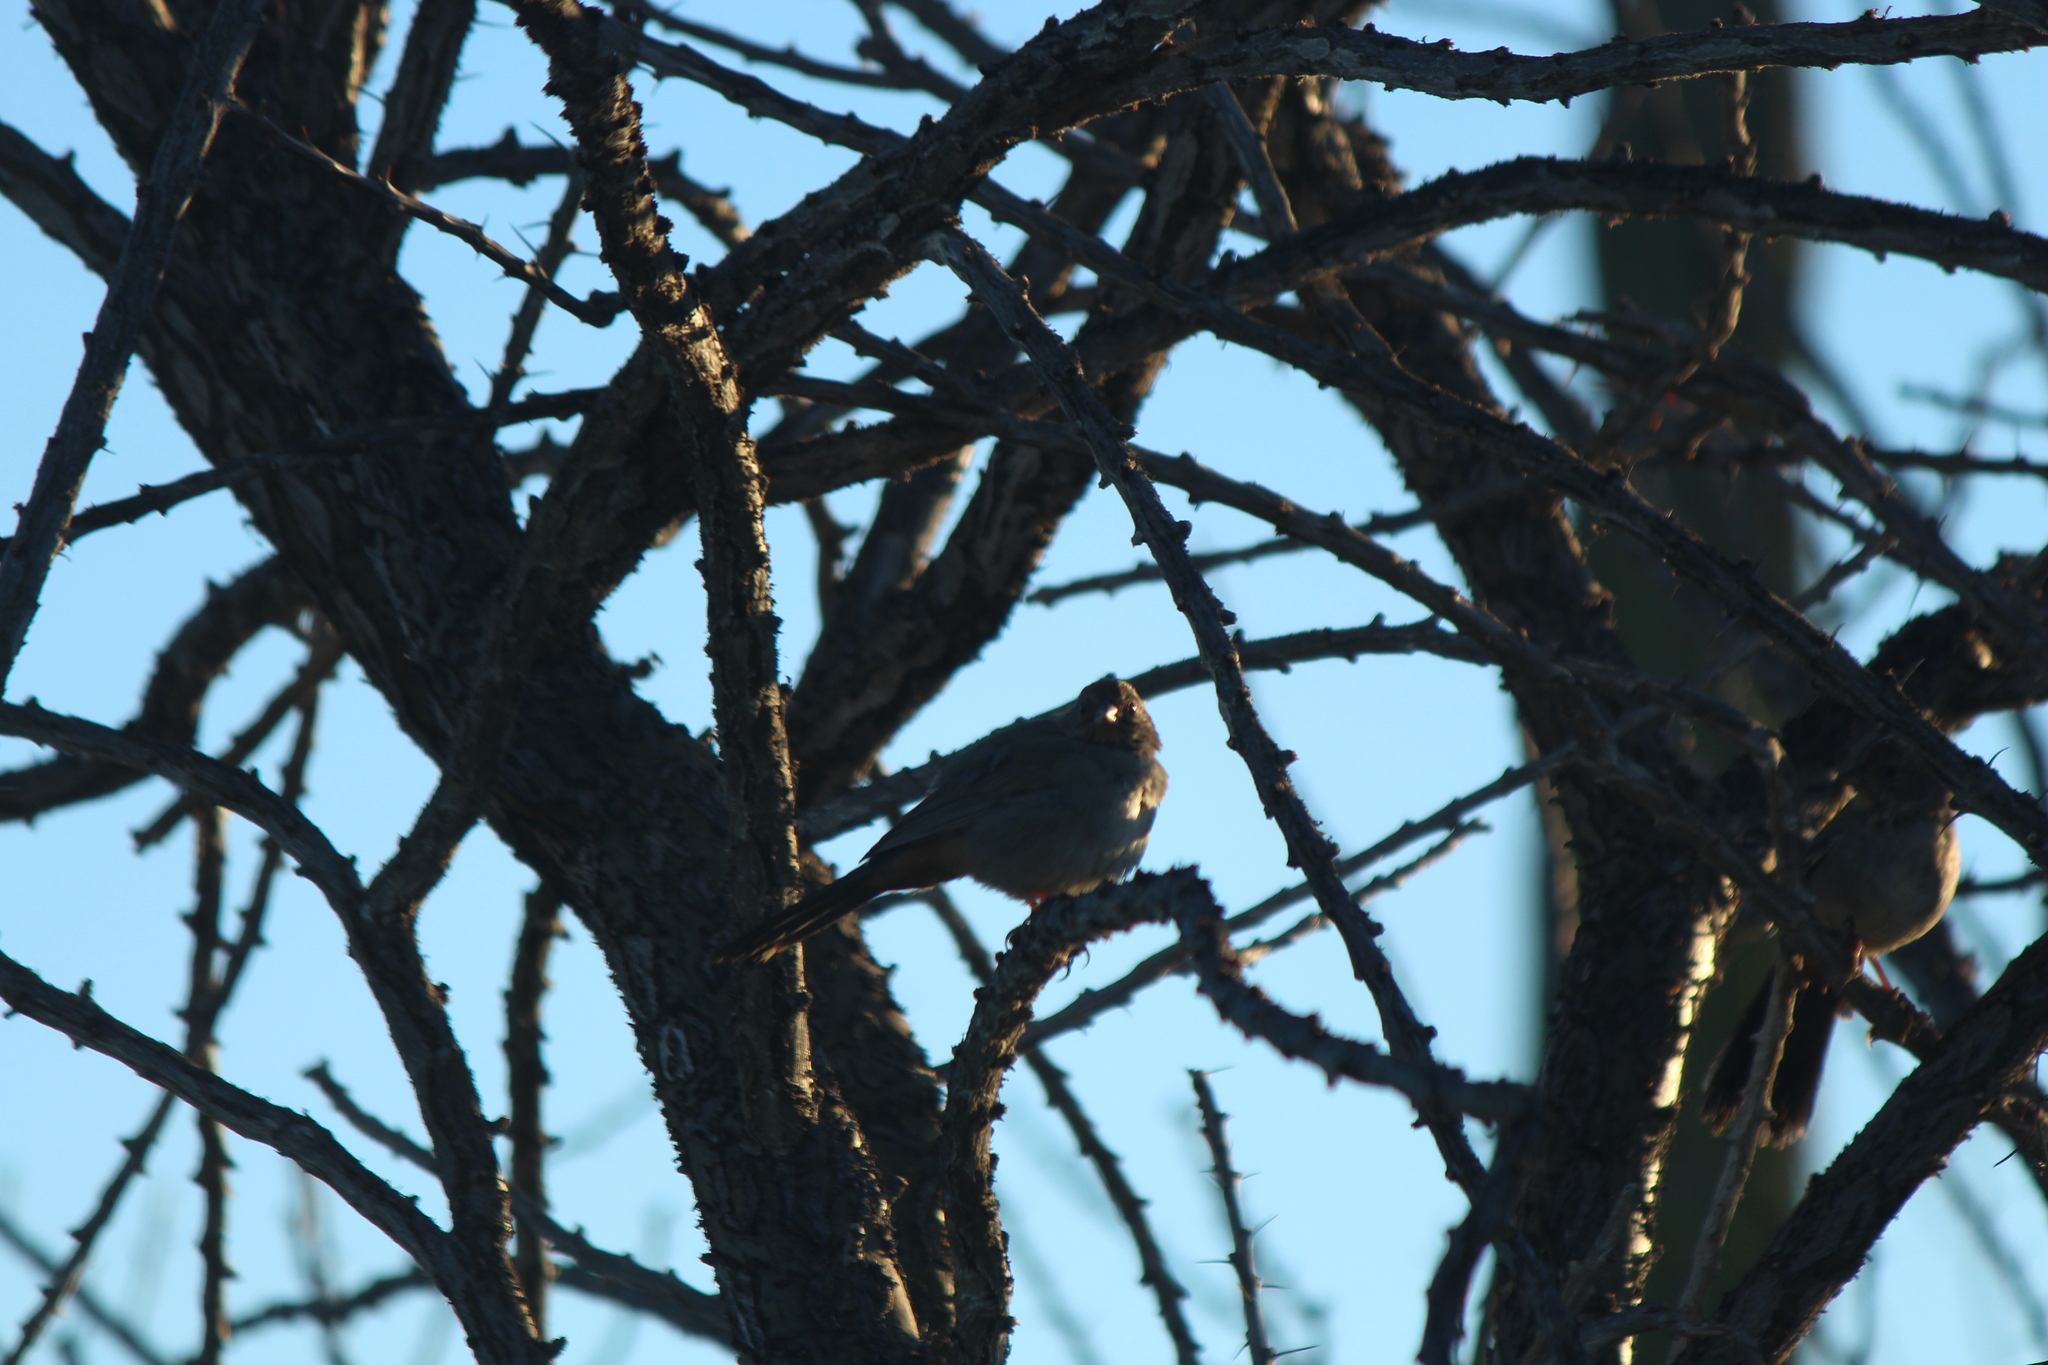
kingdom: Animalia
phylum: Chordata
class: Aves
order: Passeriformes
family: Passerellidae
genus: Melozone
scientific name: Melozone crissalis
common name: California towhee
